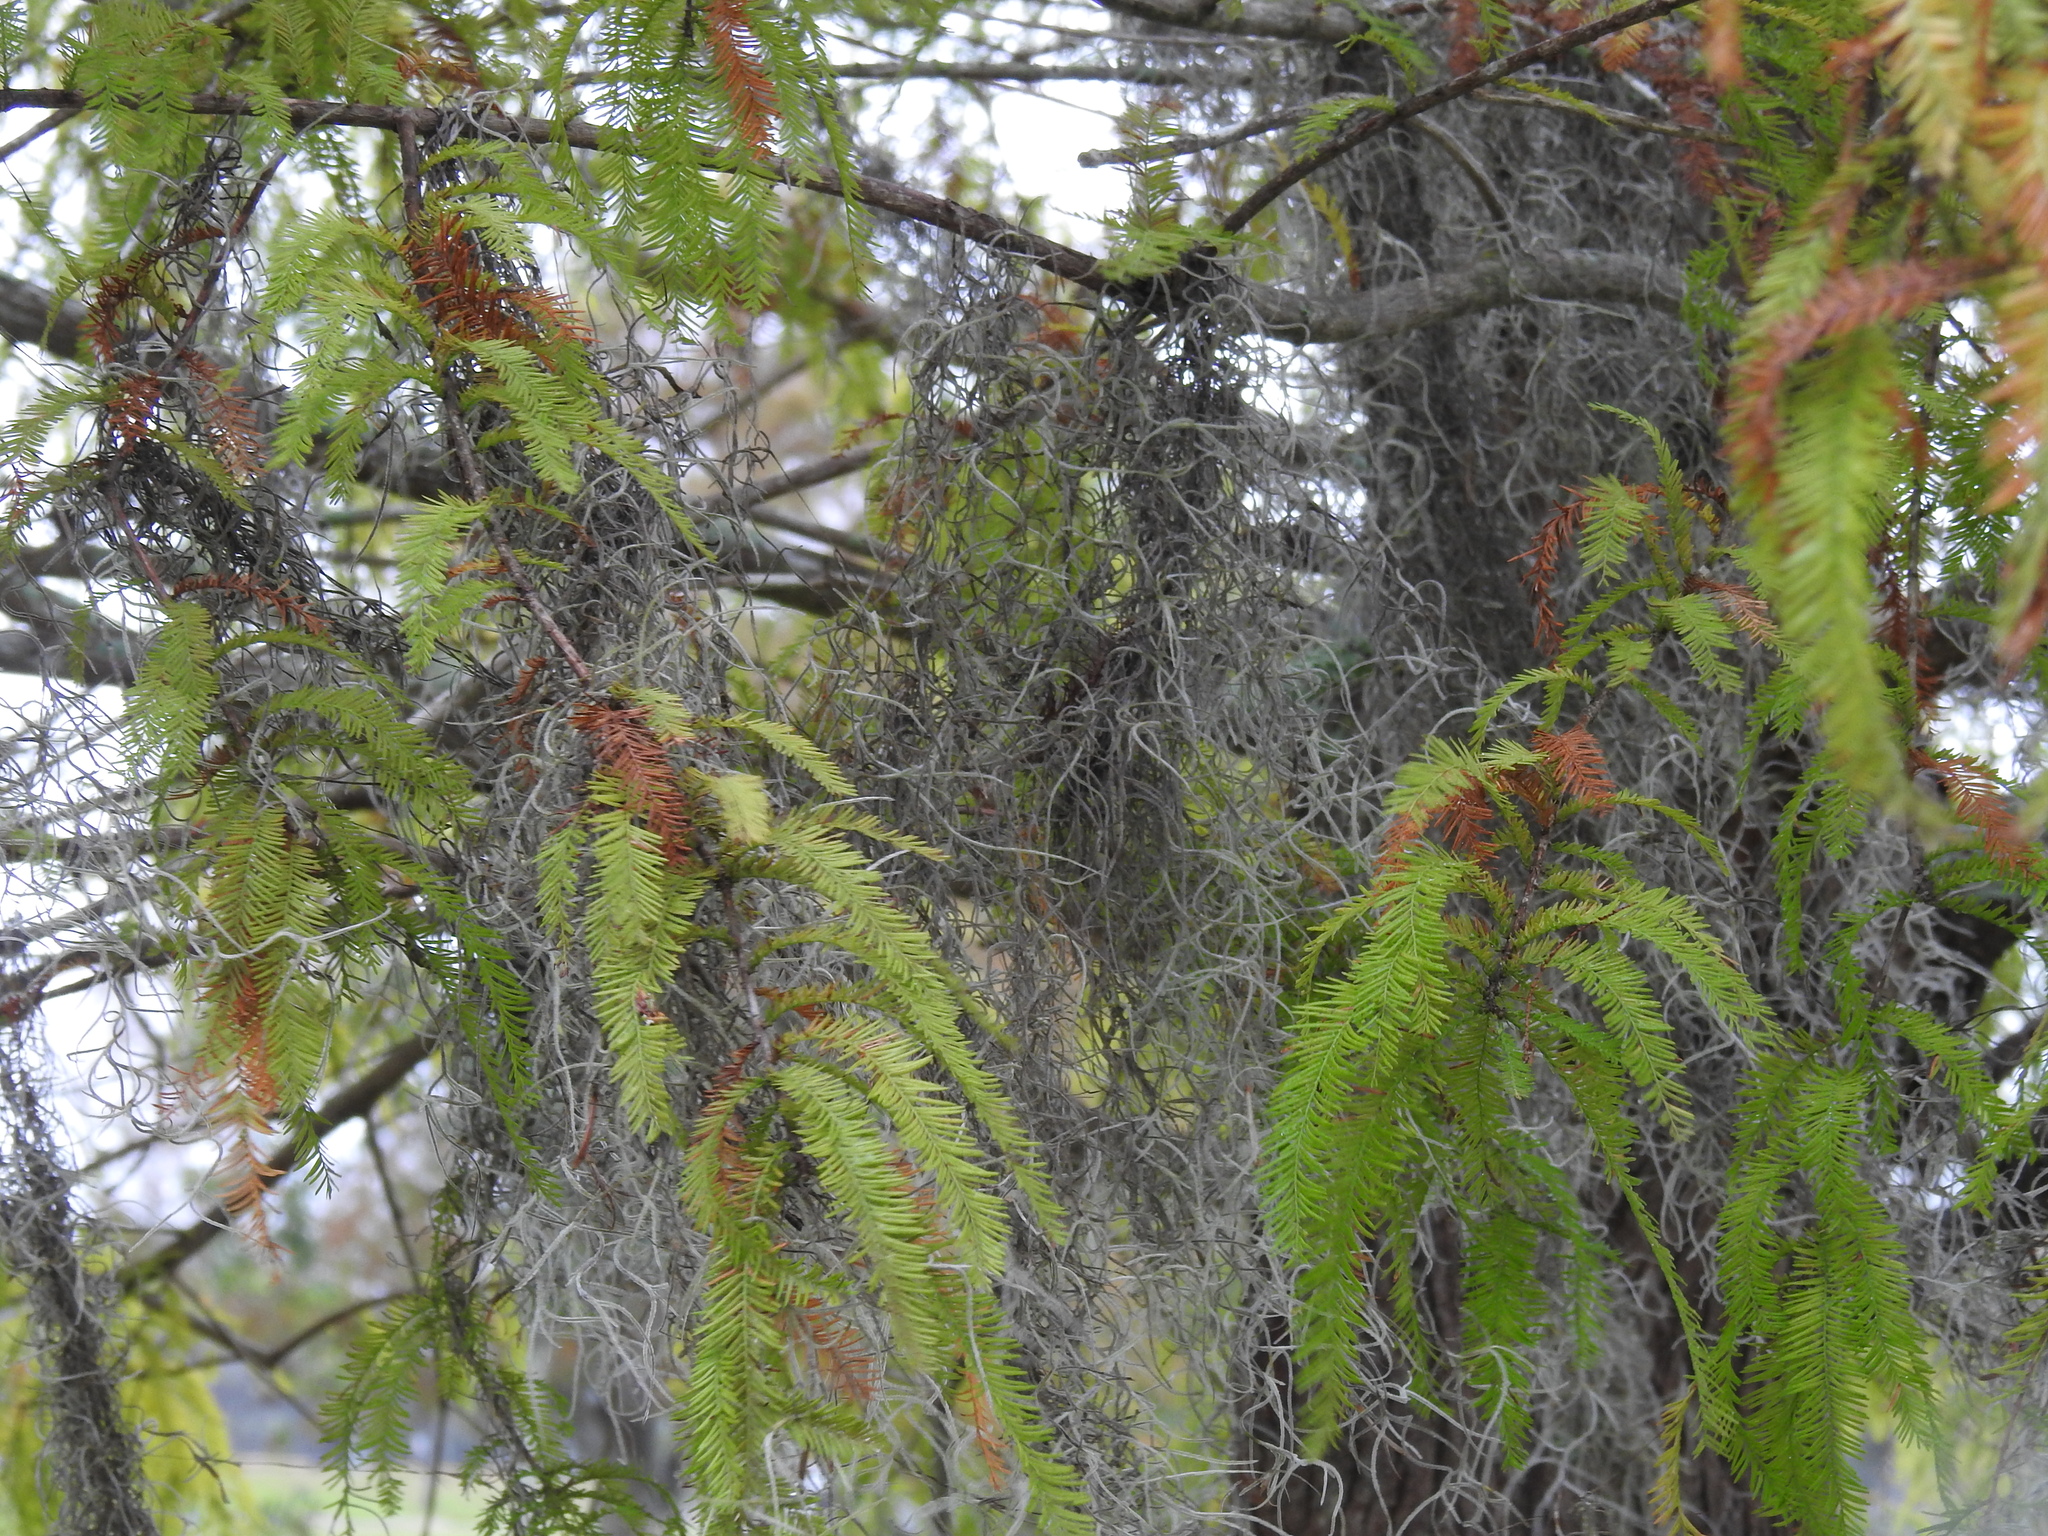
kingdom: Plantae
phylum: Tracheophyta
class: Liliopsida
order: Poales
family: Bromeliaceae
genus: Tillandsia
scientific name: Tillandsia usneoides
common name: Spanish moss
